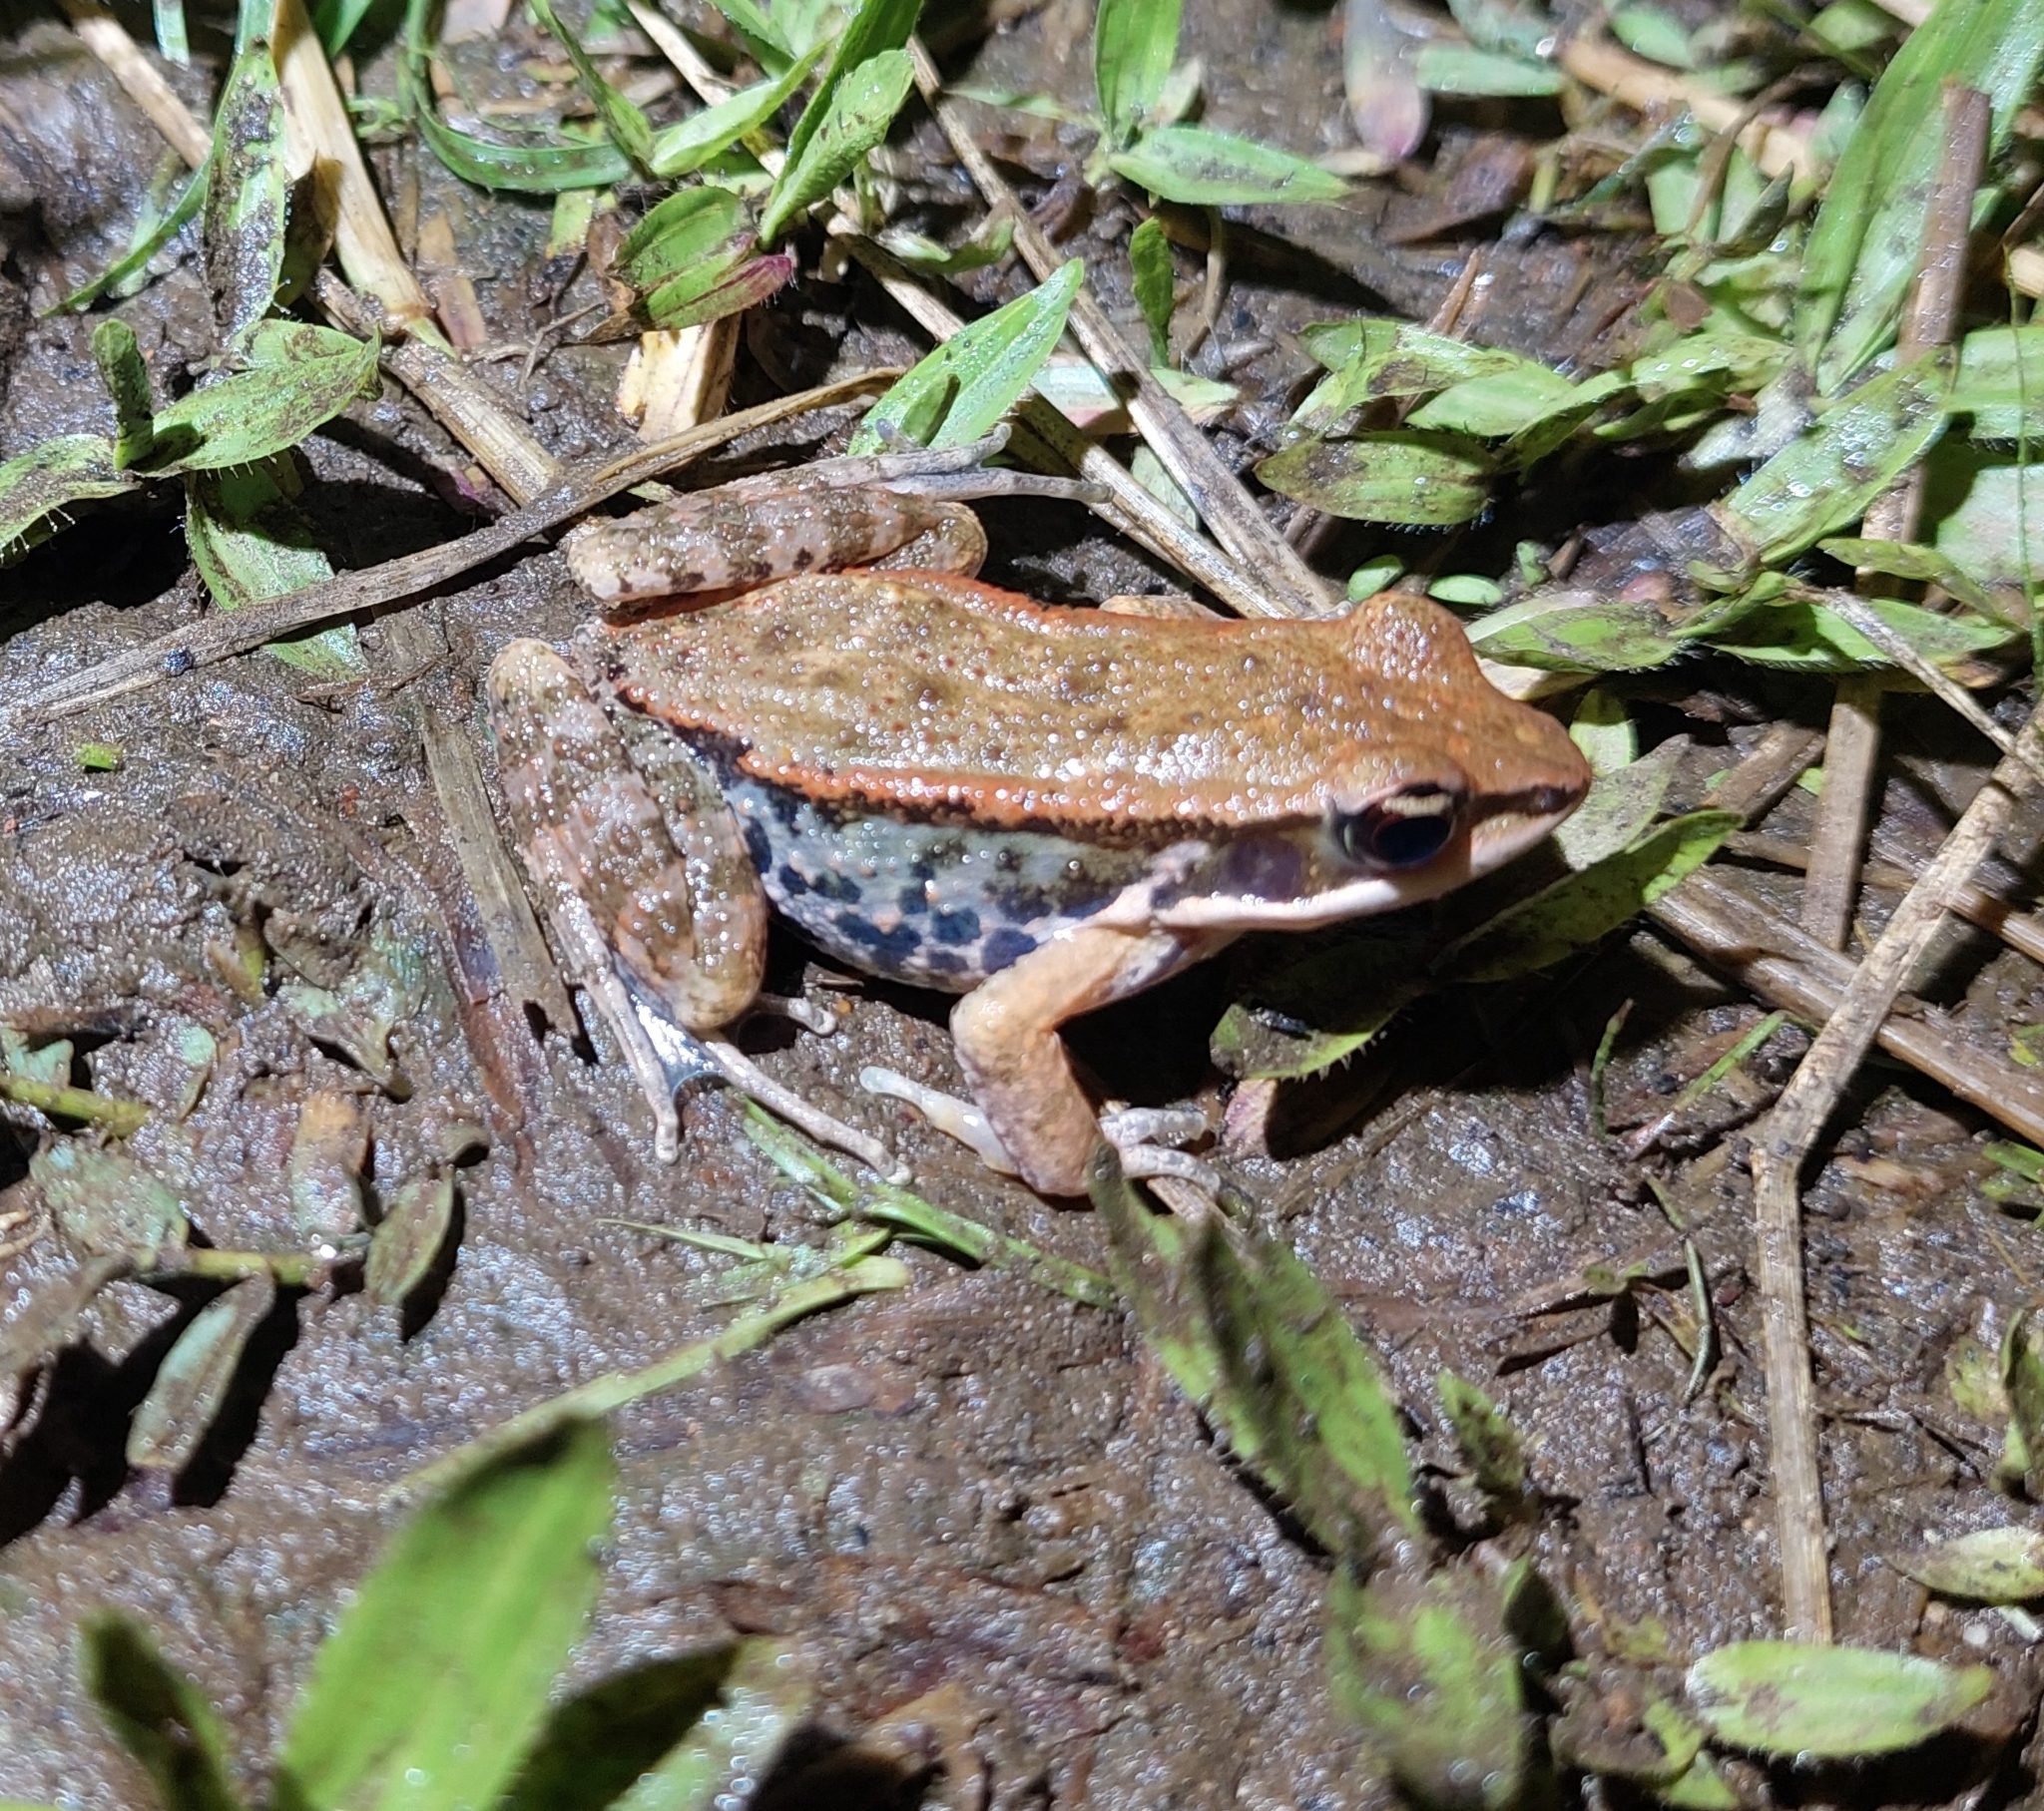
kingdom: Animalia
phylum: Chordata
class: Amphibia
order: Anura
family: Ranidae
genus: Hylarana
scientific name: Hylarana latouchii
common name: Broad-folded frog
